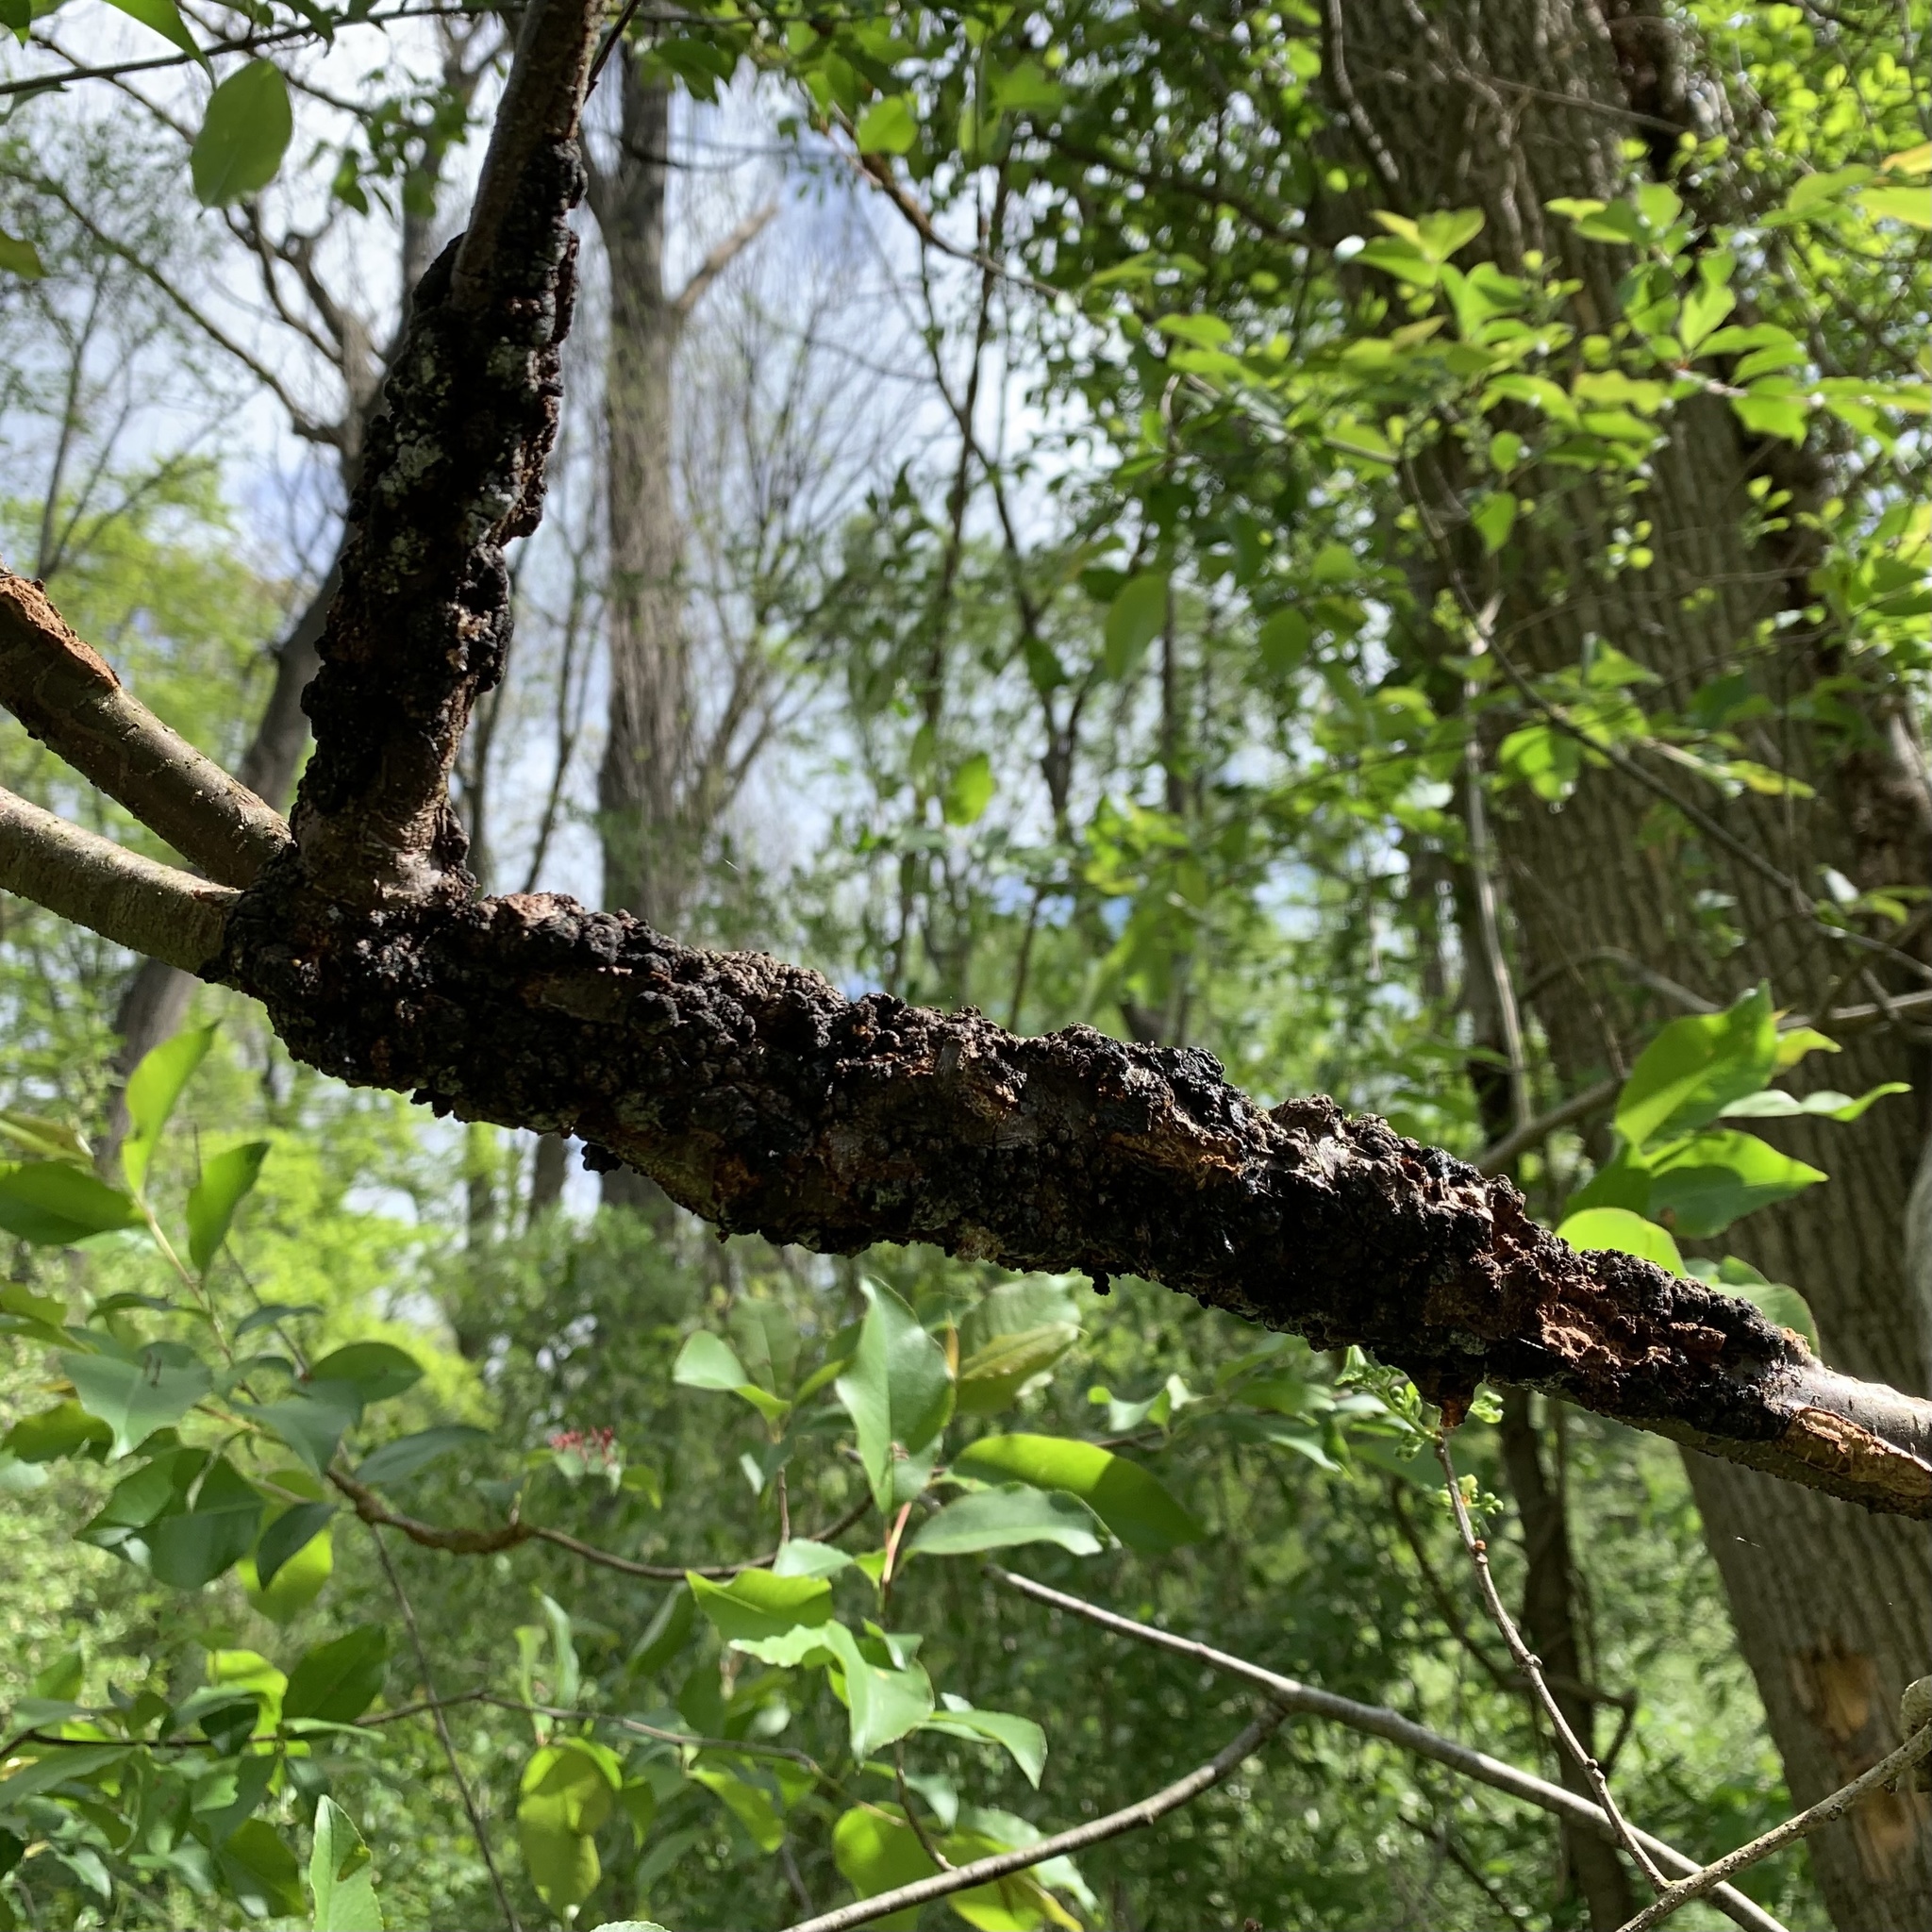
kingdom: Fungi
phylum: Ascomycota
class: Dothideomycetes
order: Venturiales
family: Venturiaceae
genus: Apiosporina
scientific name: Apiosporina morbosa
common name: Black knot
